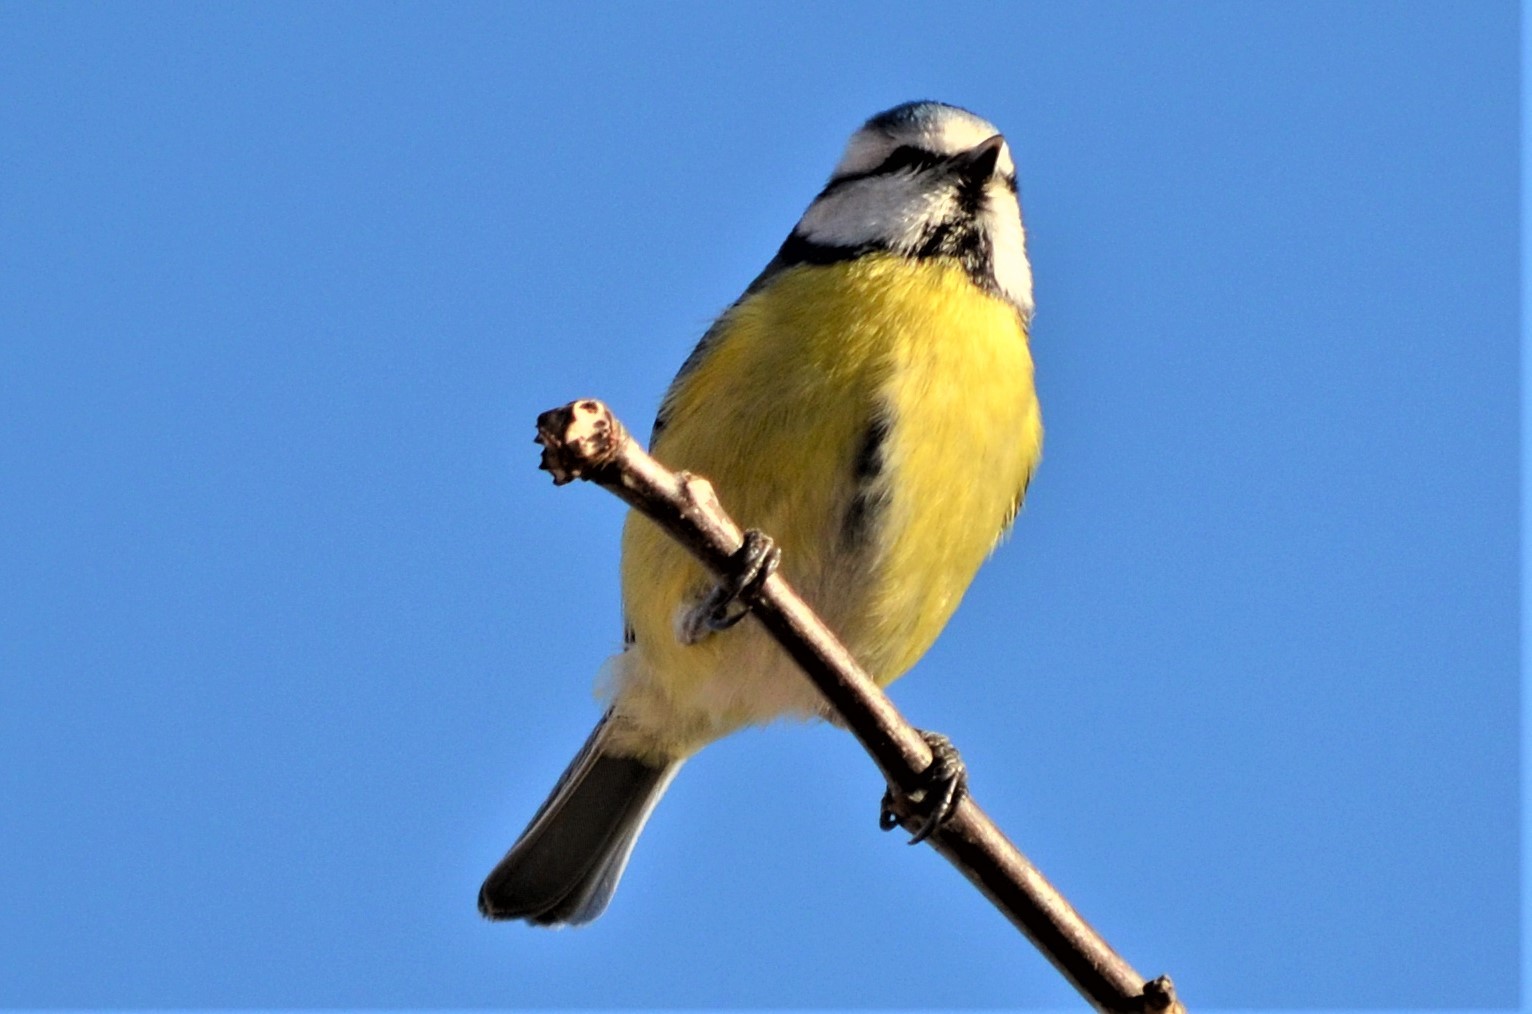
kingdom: Animalia
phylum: Chordata
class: Aves
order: Passeriformes
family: Paridae
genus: Cyanistes
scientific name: Cyanistes caeruleus
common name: Eurasian blue tit
